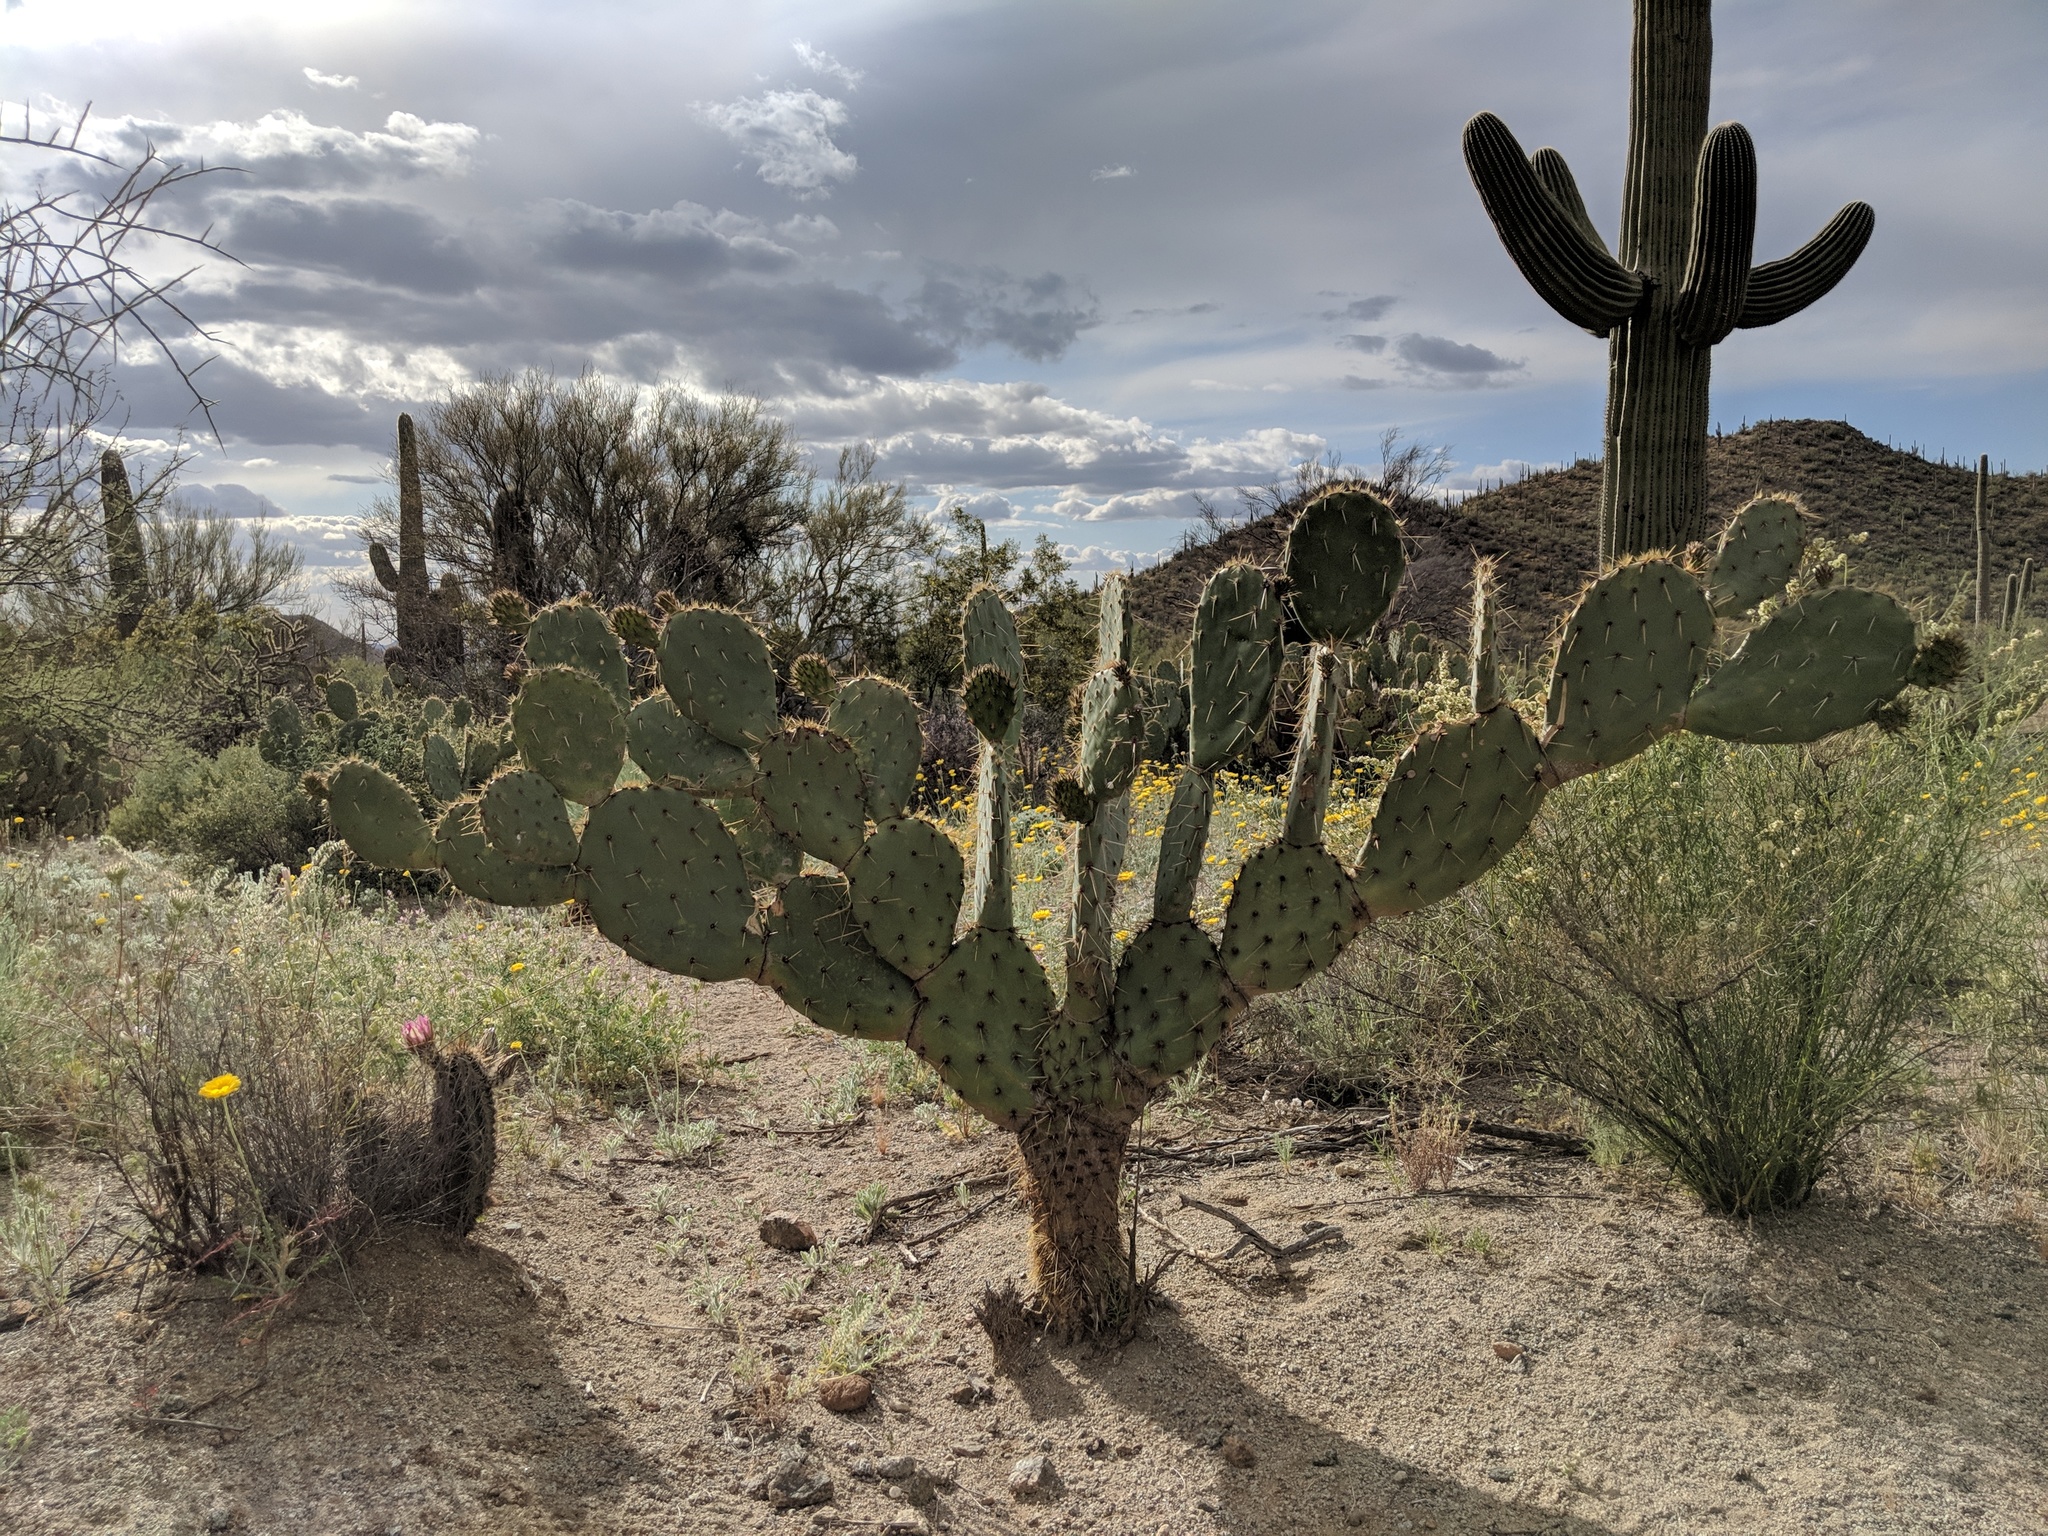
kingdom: Plantae
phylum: Tracheophyta
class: Magnoliopsida
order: Caryophyllales
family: Cactaceae
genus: Opuntia
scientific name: Opuntia engelmannii
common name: Cactus-apple
